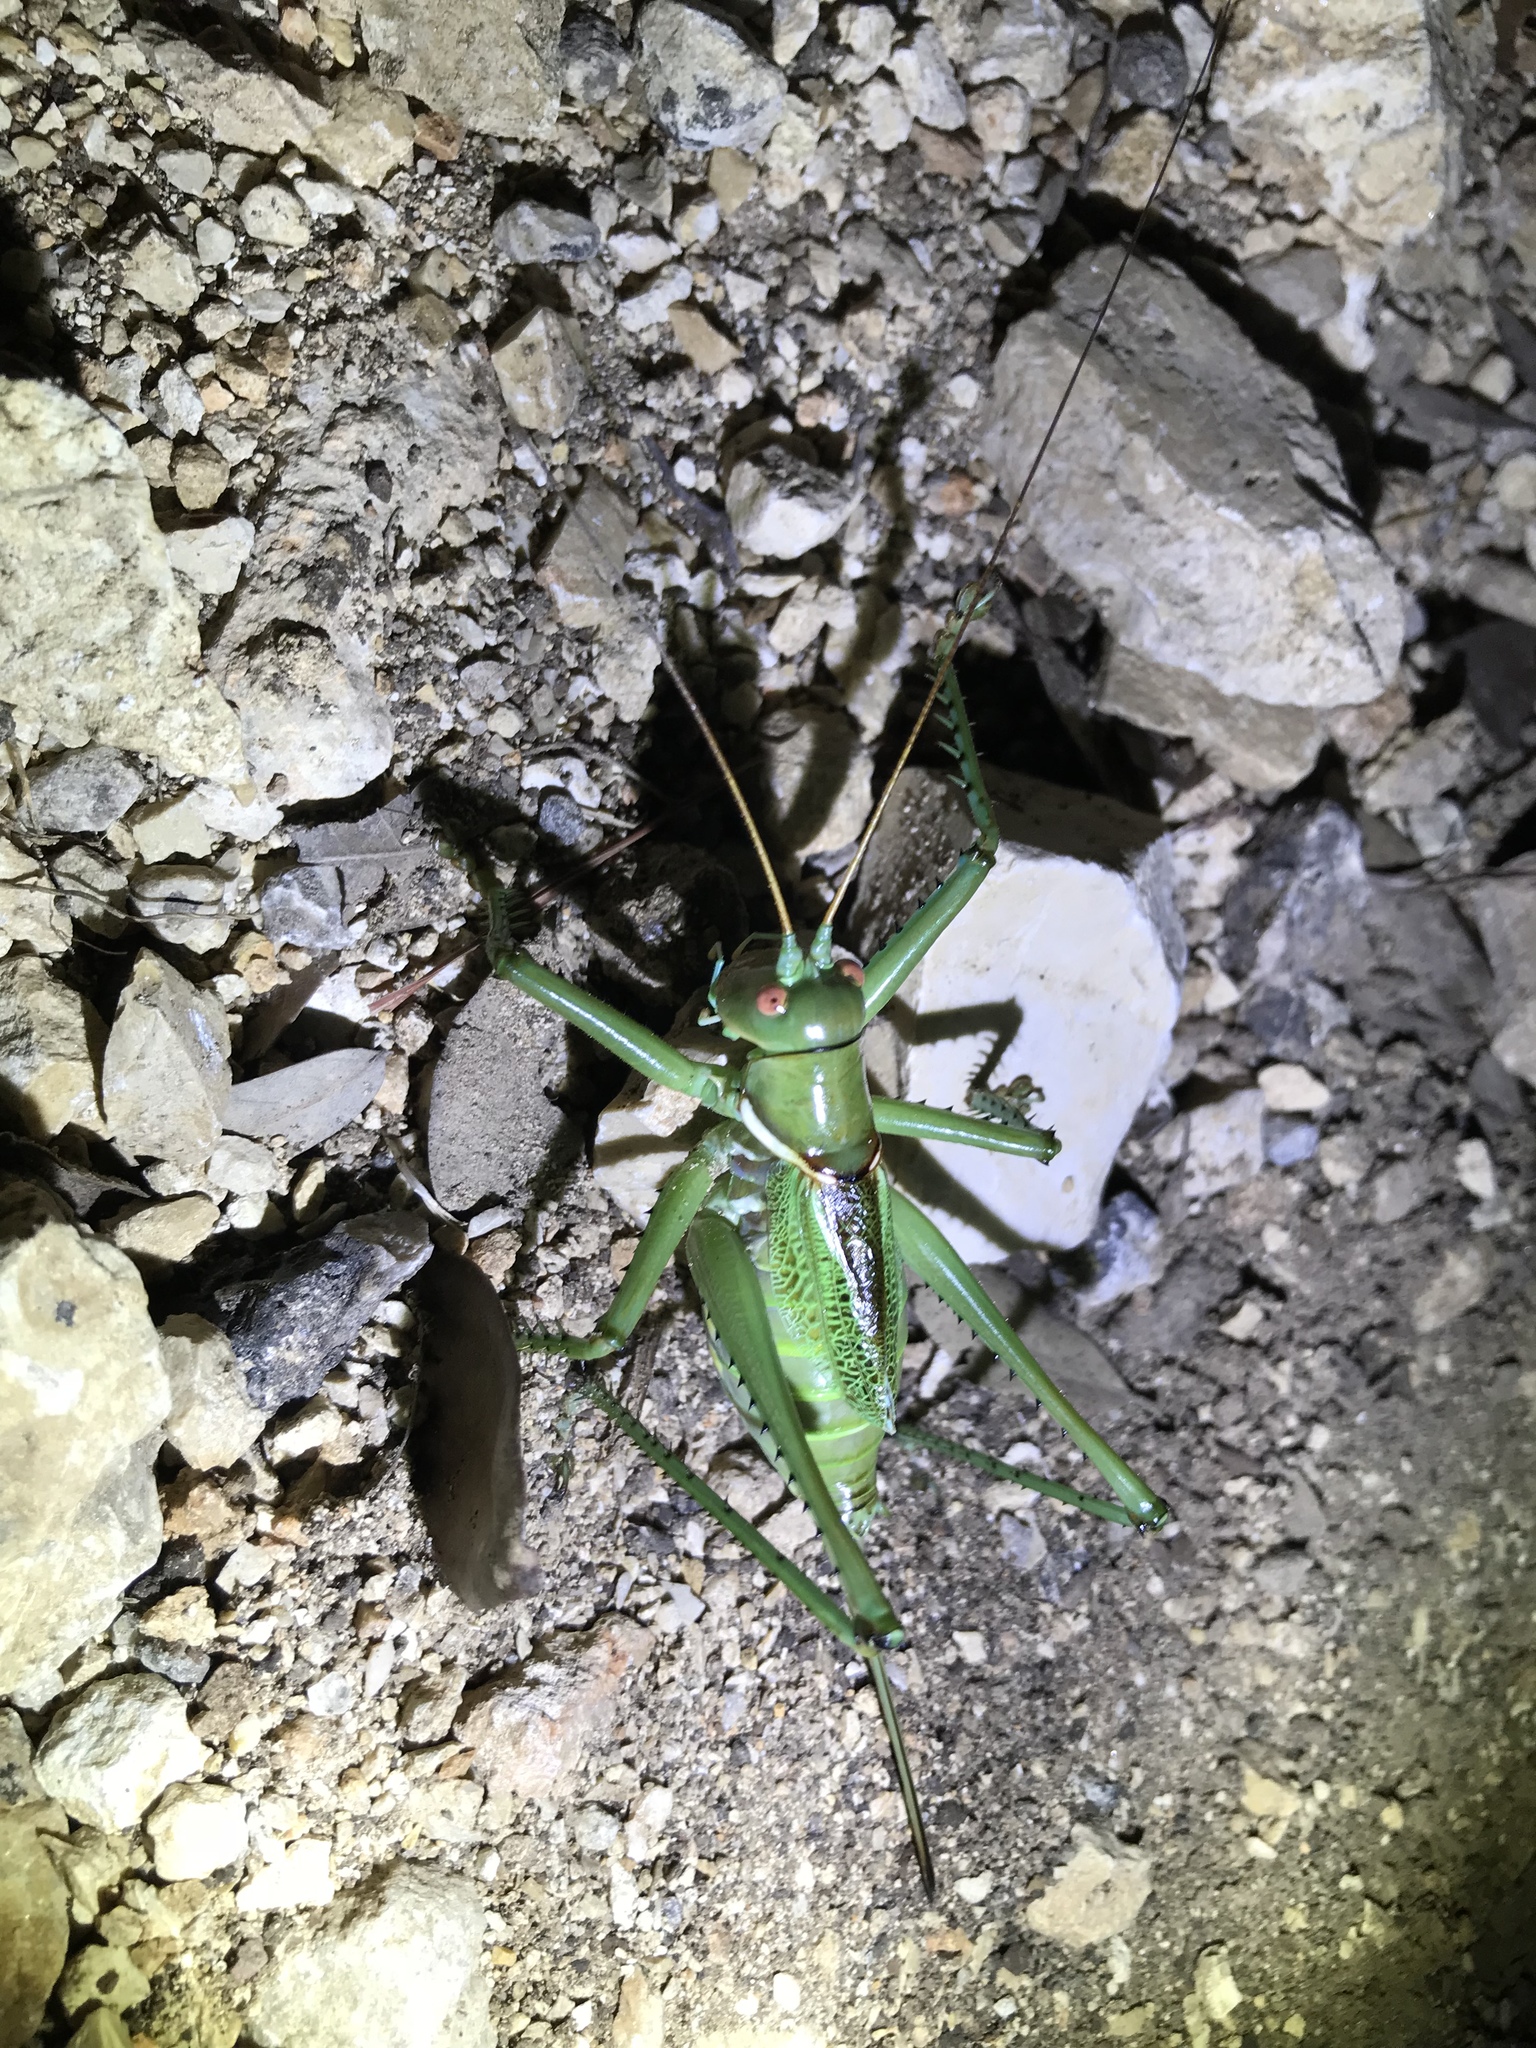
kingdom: Animalia
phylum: Arthropoda
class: Insecta
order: Orthoptera
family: Tettigoniidae
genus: Neobarrettia
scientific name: Neobarrettia spinosa
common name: Greater arid-land katydid
